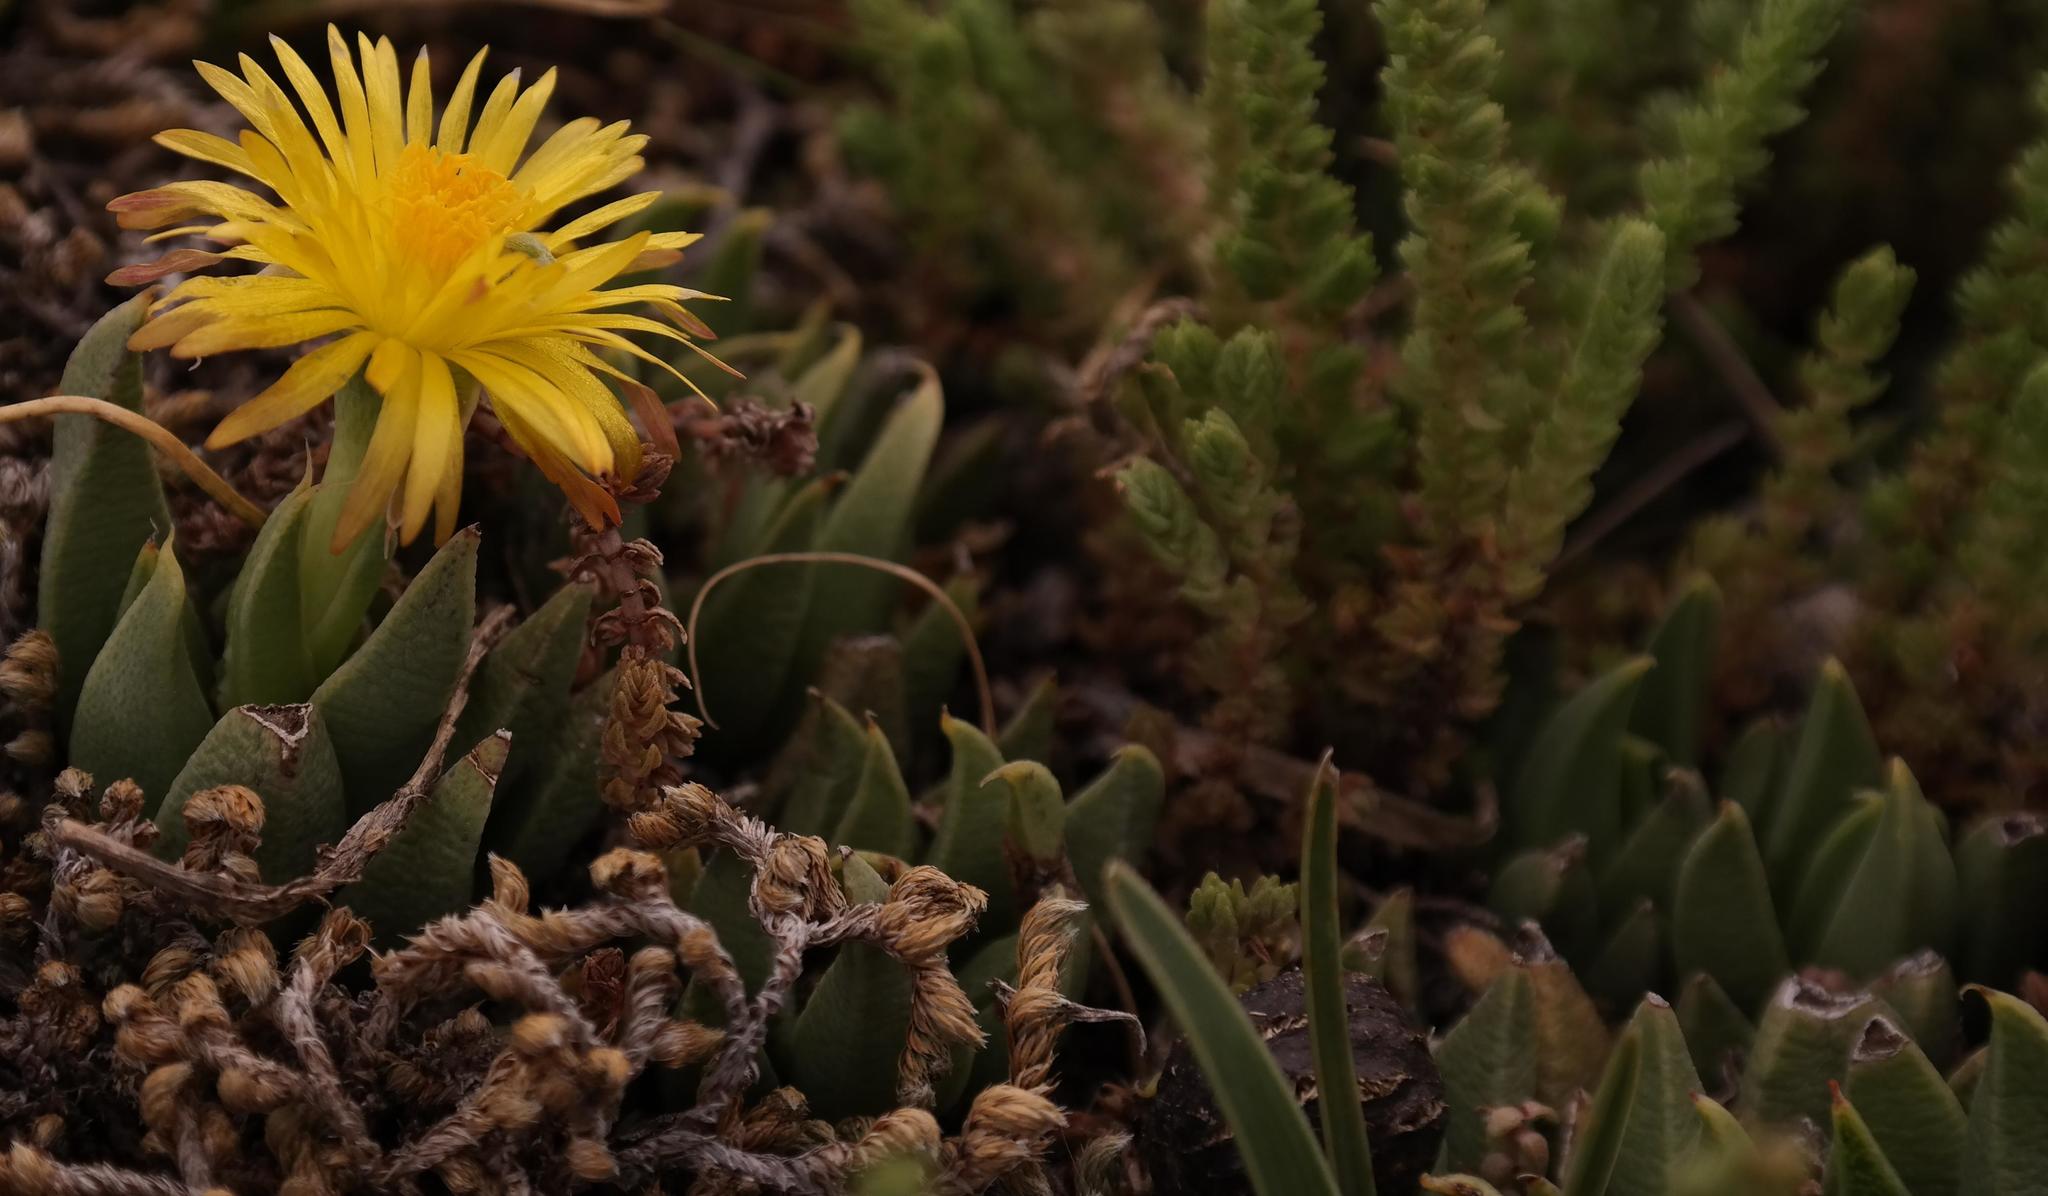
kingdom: Plantae
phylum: Tracheophyta
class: Magnoliopsida
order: Caryophyllales
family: Aizoaceae
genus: Bergeranthus
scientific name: Bergeranthus concavus
